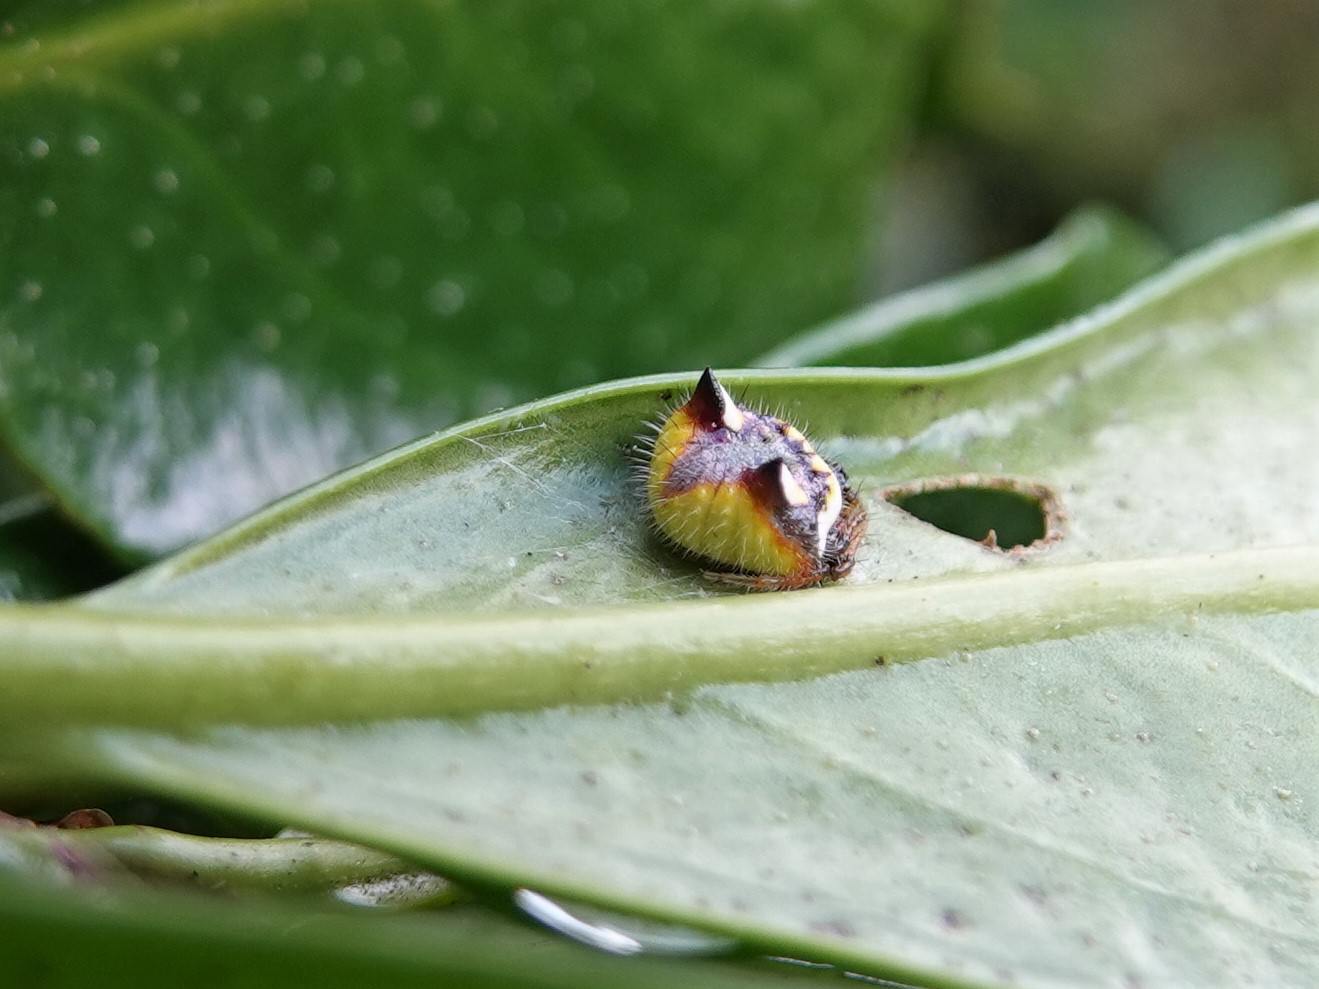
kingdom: Animalia
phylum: Arthropoda
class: Arachnida
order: Araneae
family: Araneidae
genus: Poecilopachys
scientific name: Poecilopachys australasia
